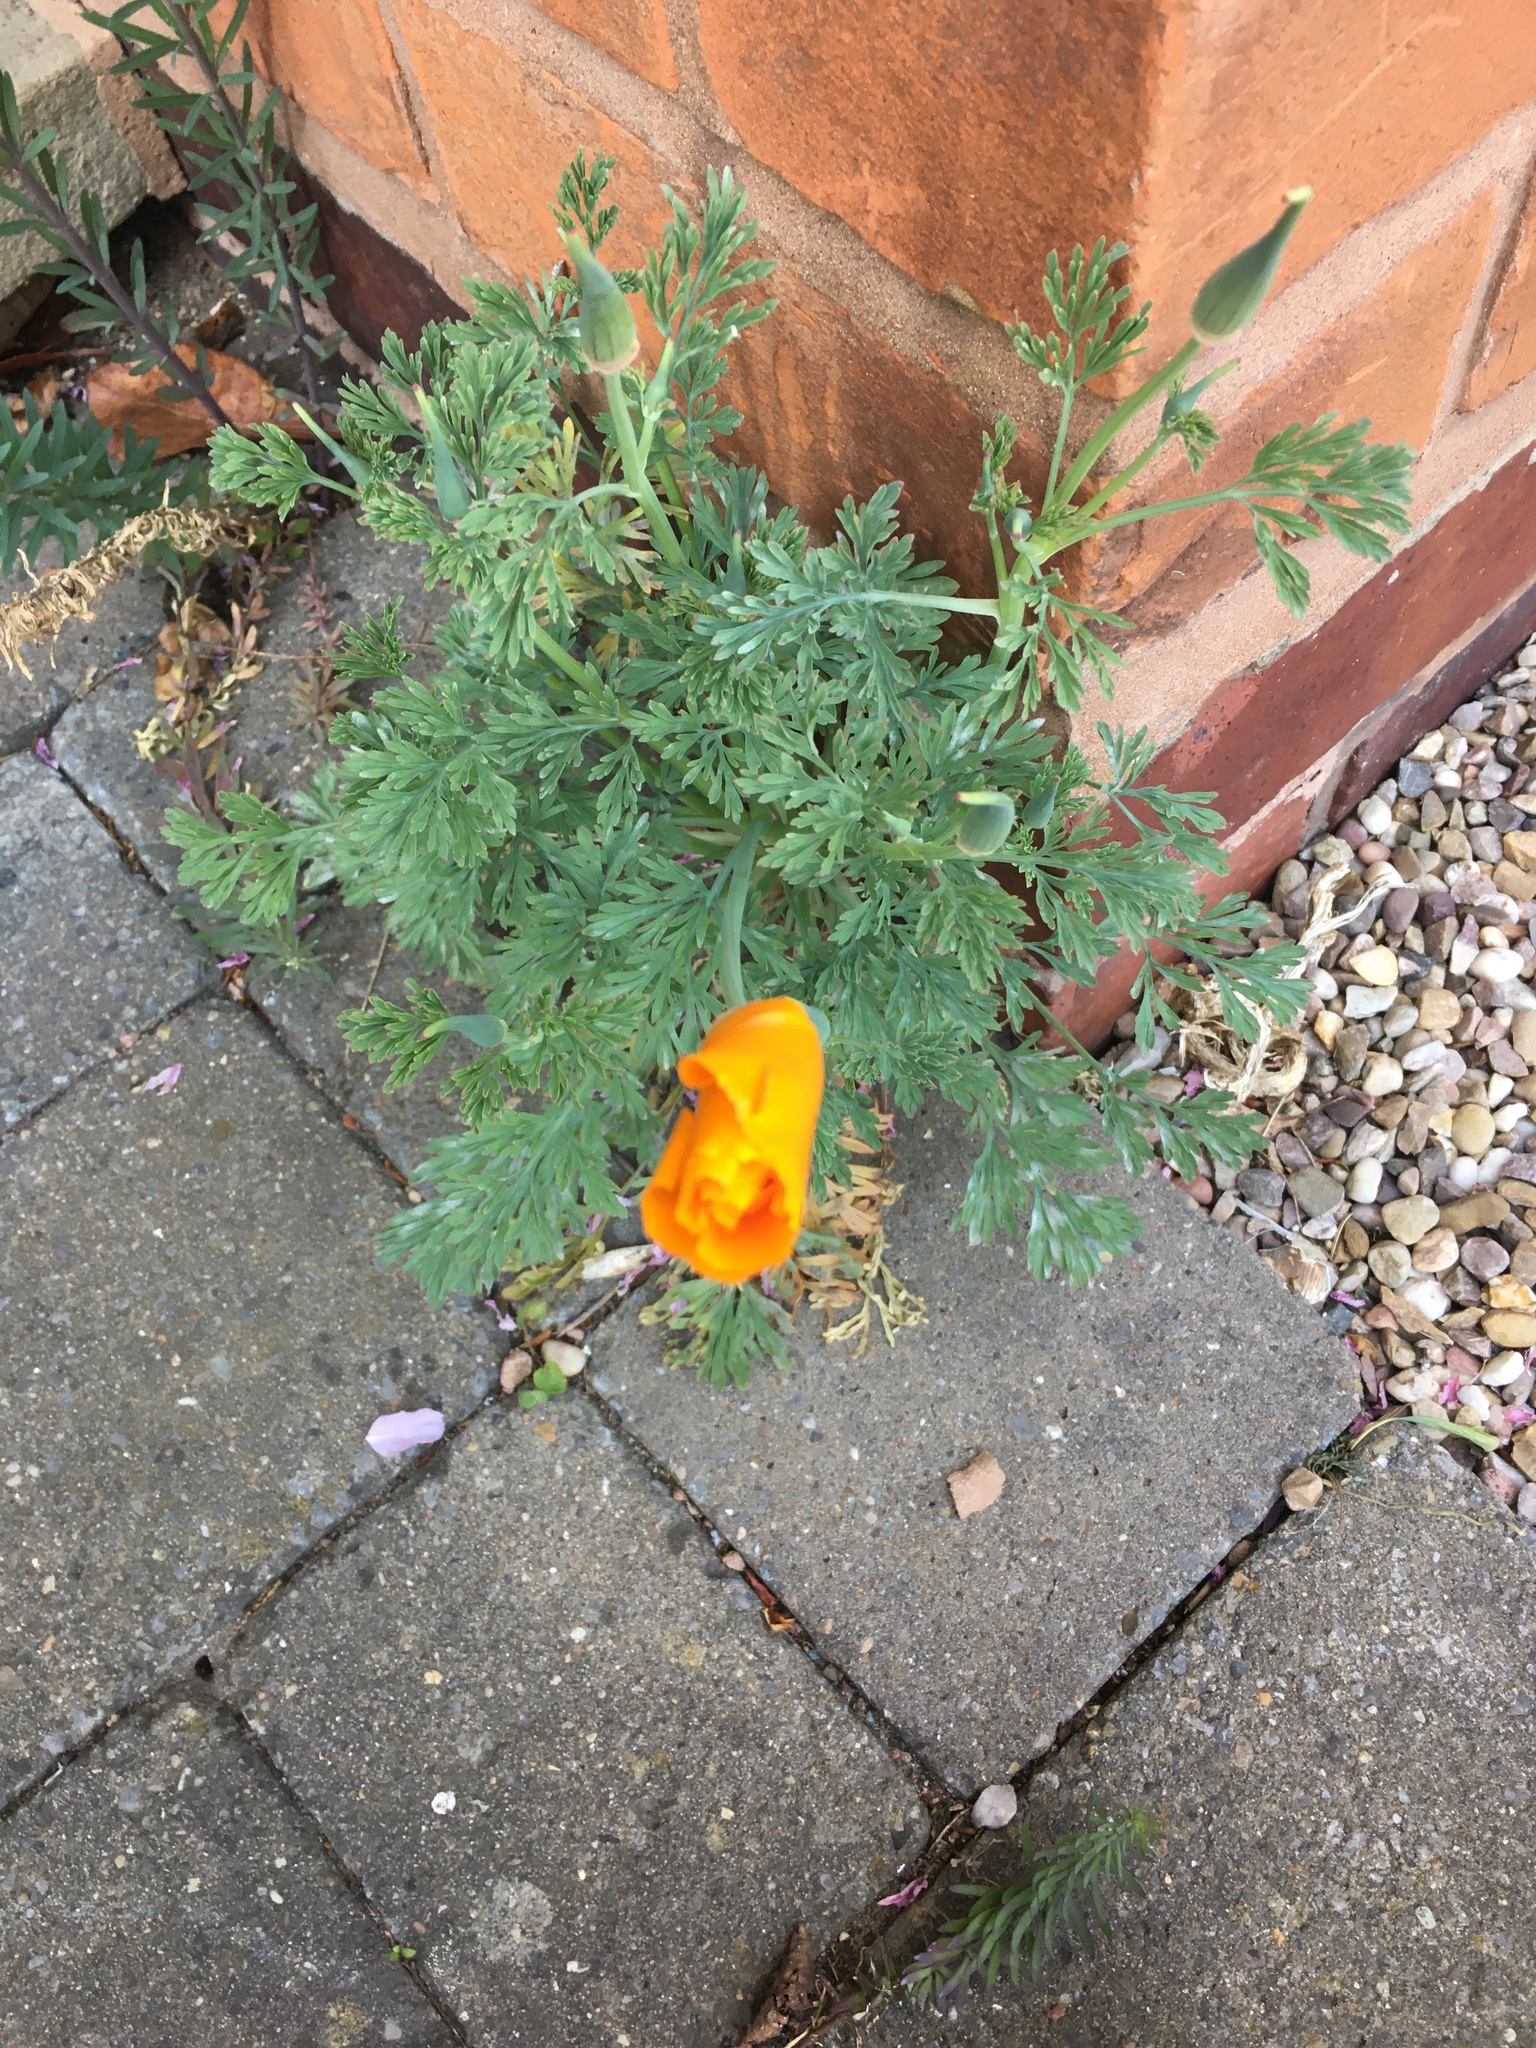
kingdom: Plantae
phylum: Tracheophyta
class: Magnoliopsida
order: Ranunculales
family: Papaveraceae
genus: Eschscholzia
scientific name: Eschscholzia californica
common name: California poppy
